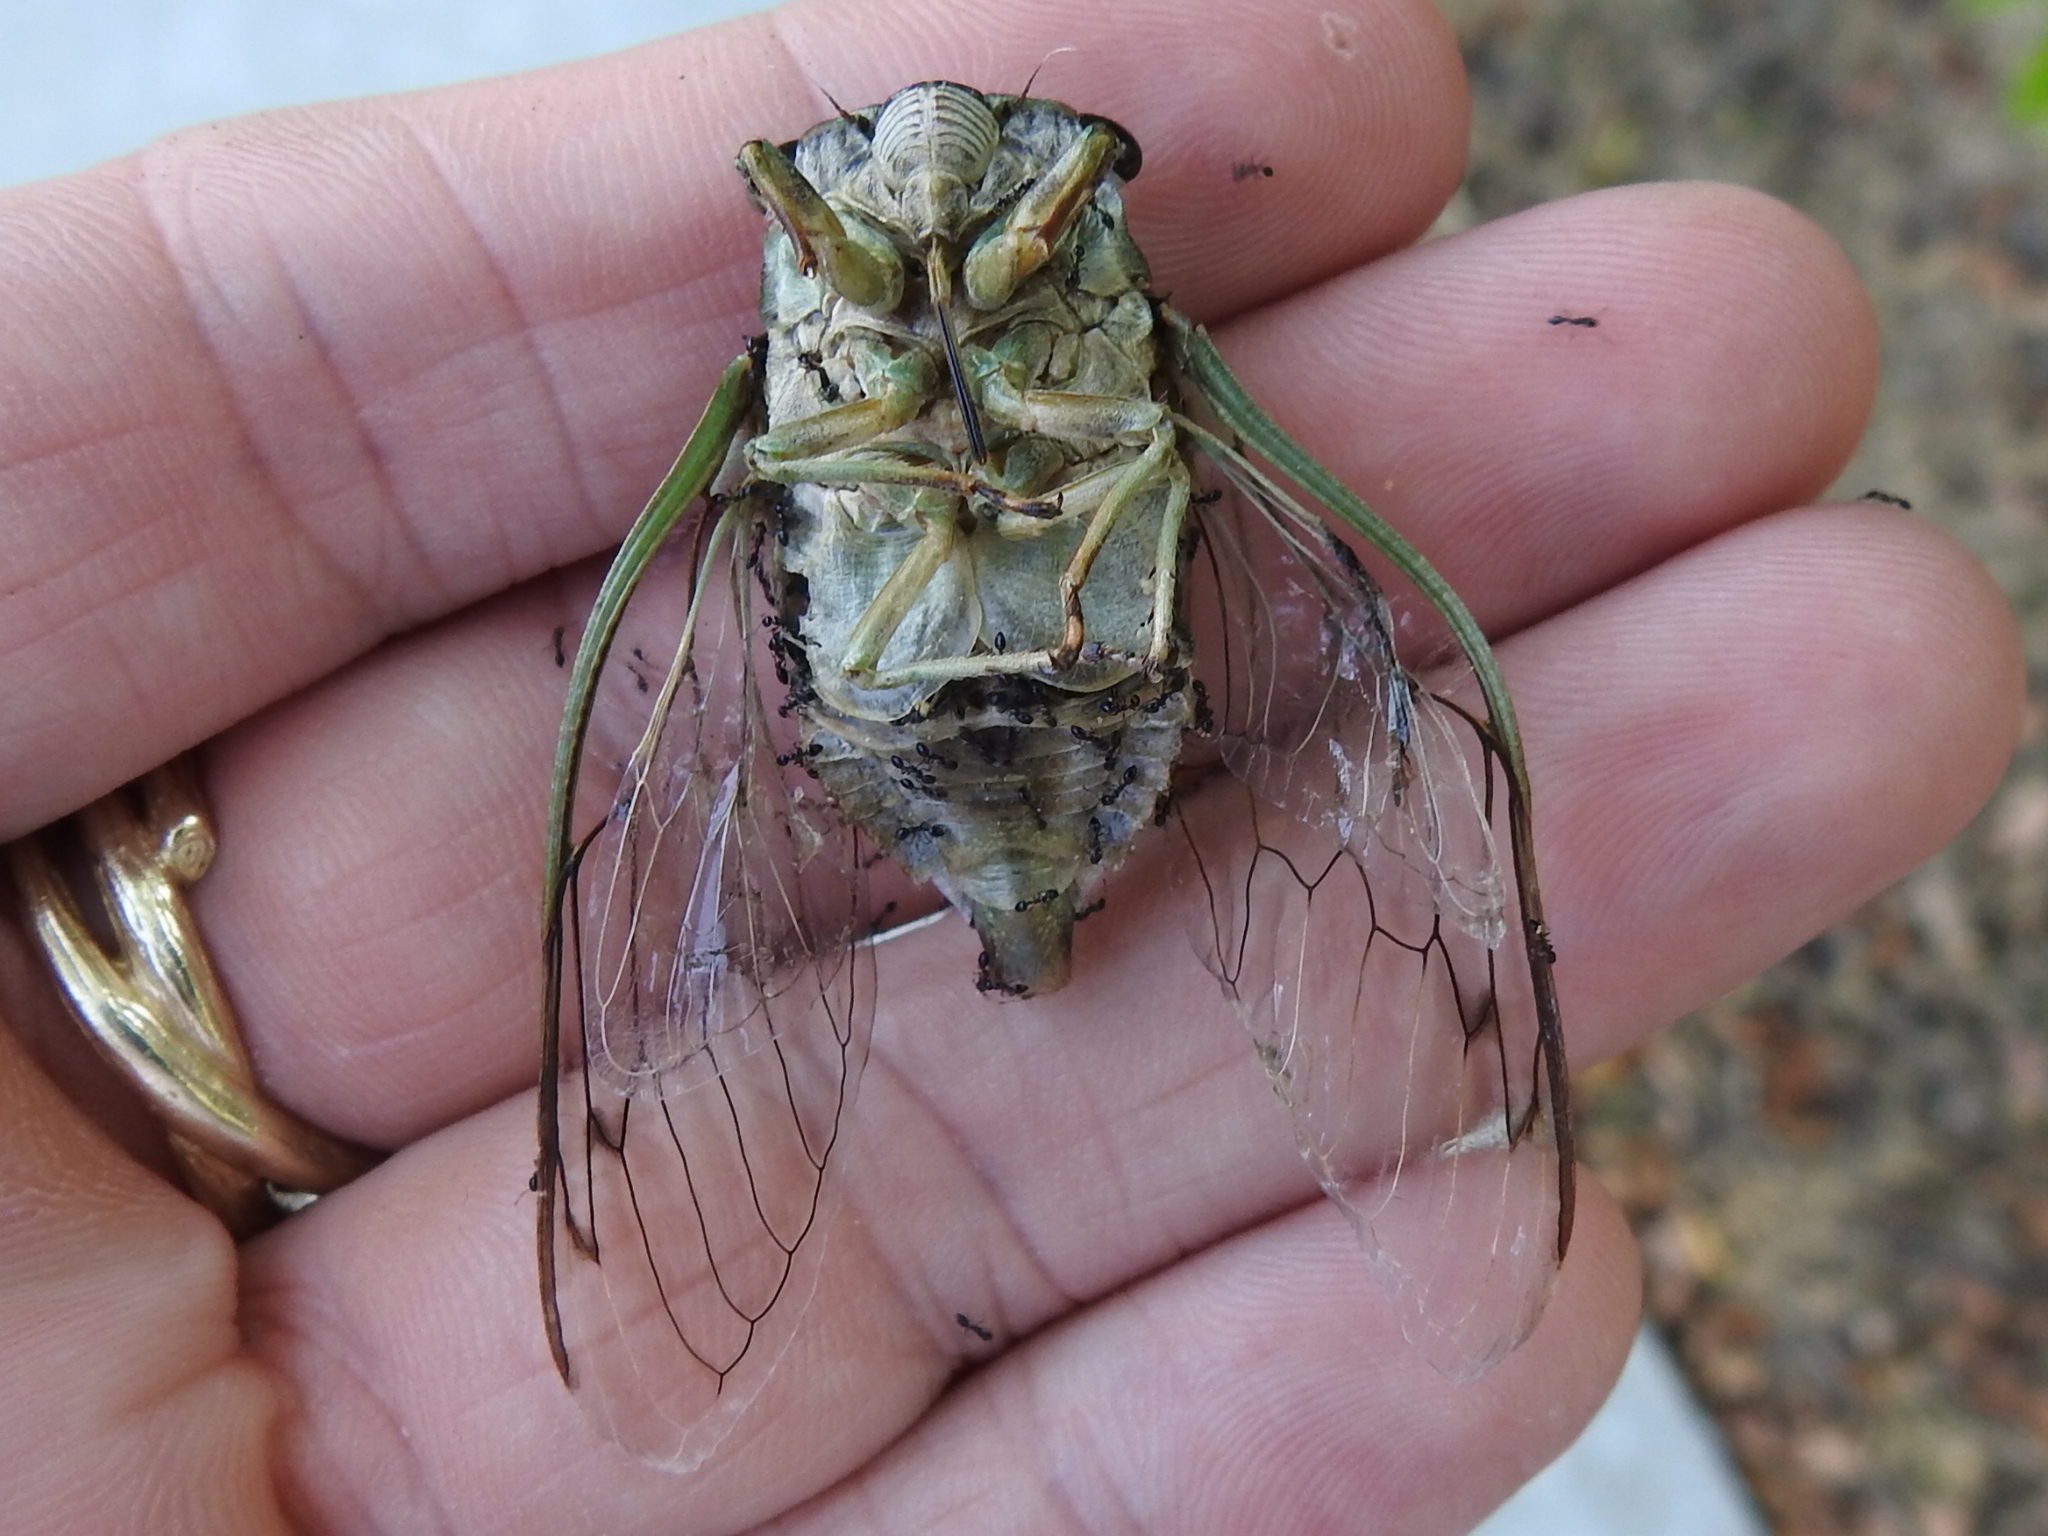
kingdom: Animalia
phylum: Arthropoda
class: Insecta
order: Hemiptera
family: Cicadidae
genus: Neotibicen
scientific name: Neotibicen pruinosus
